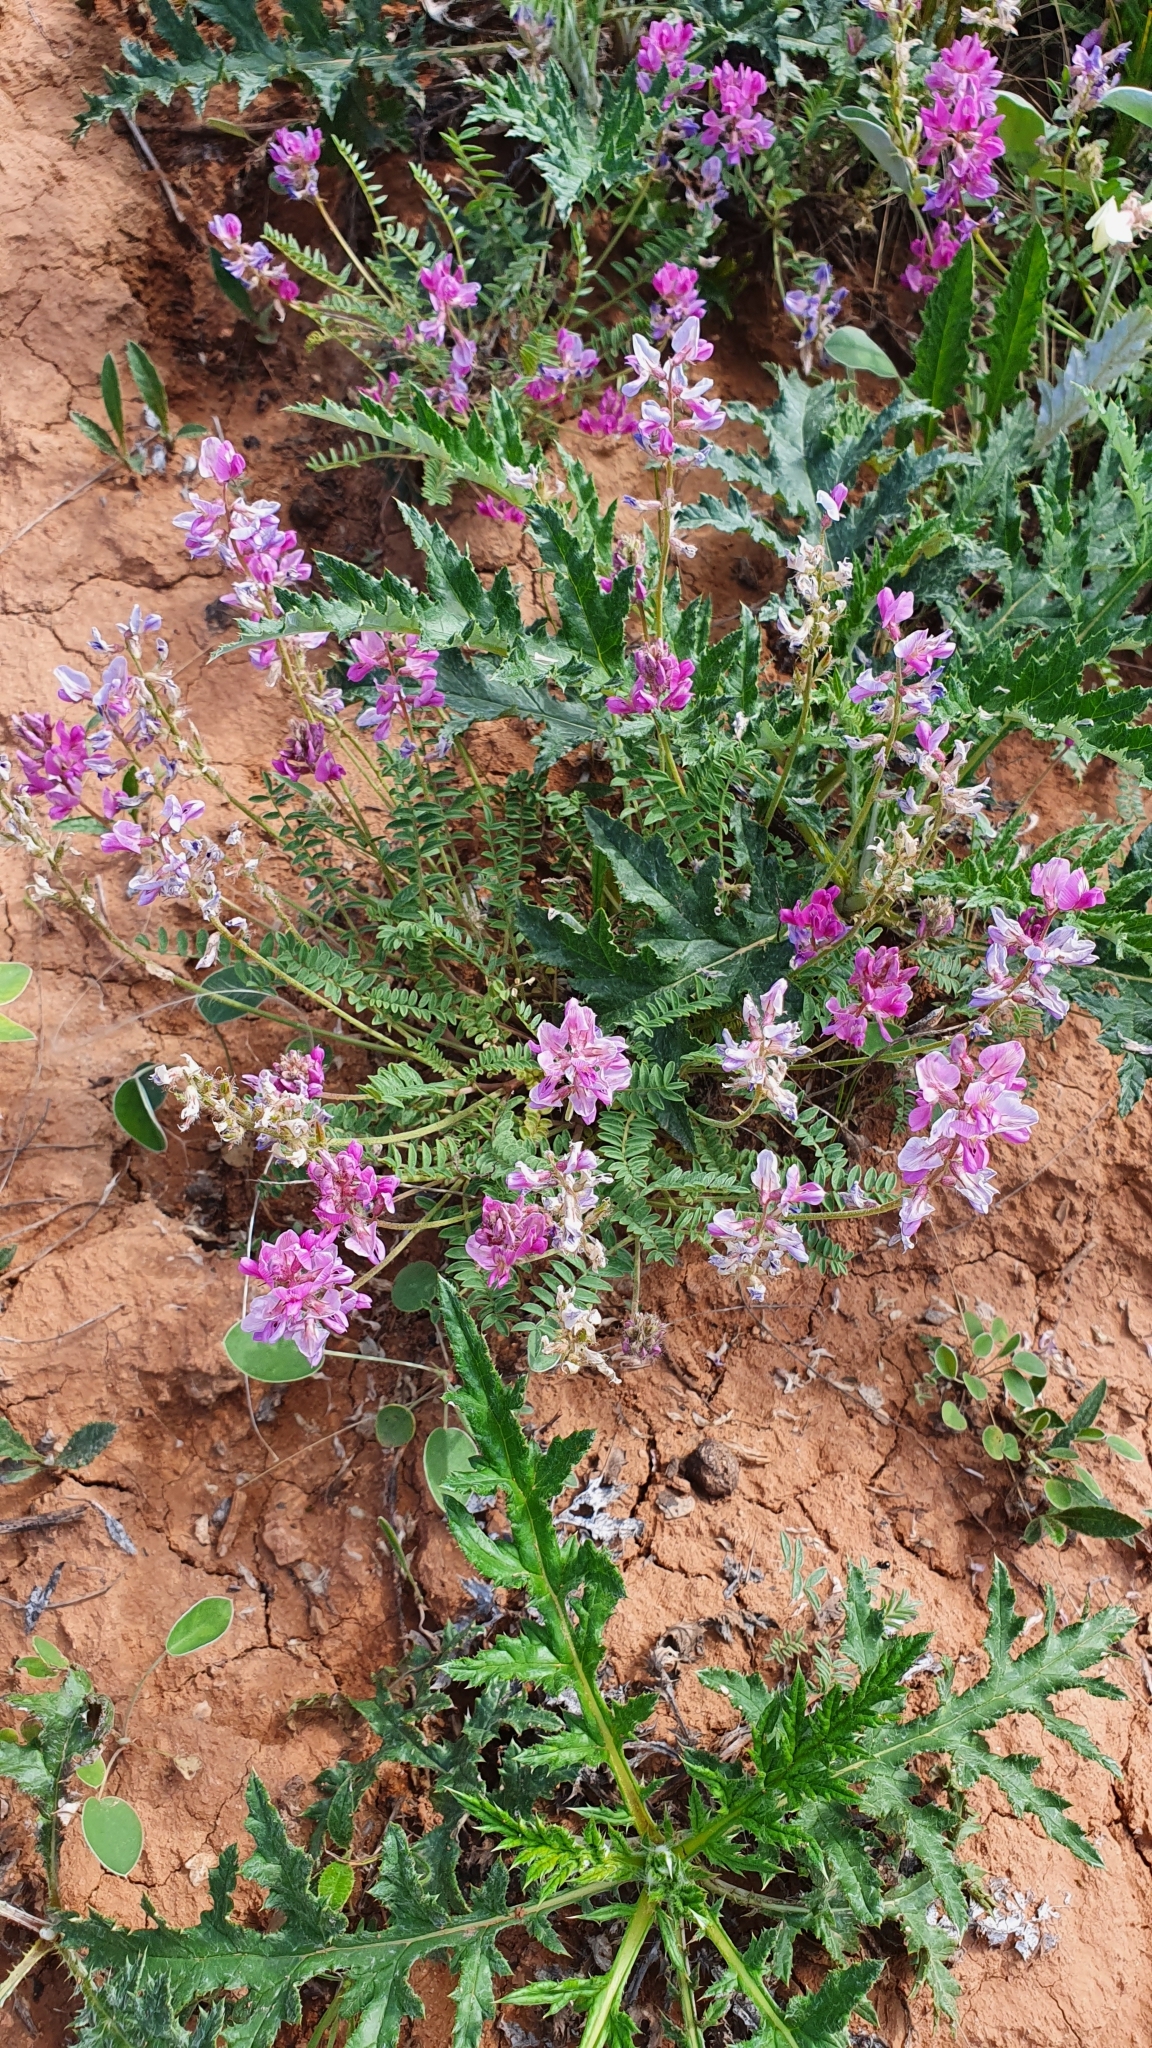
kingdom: Plantae
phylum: Tracheophyta
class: Magnoliopsida
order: Fabales
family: Fabaceae
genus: Oxytropis
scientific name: Oxytropis floribunda
